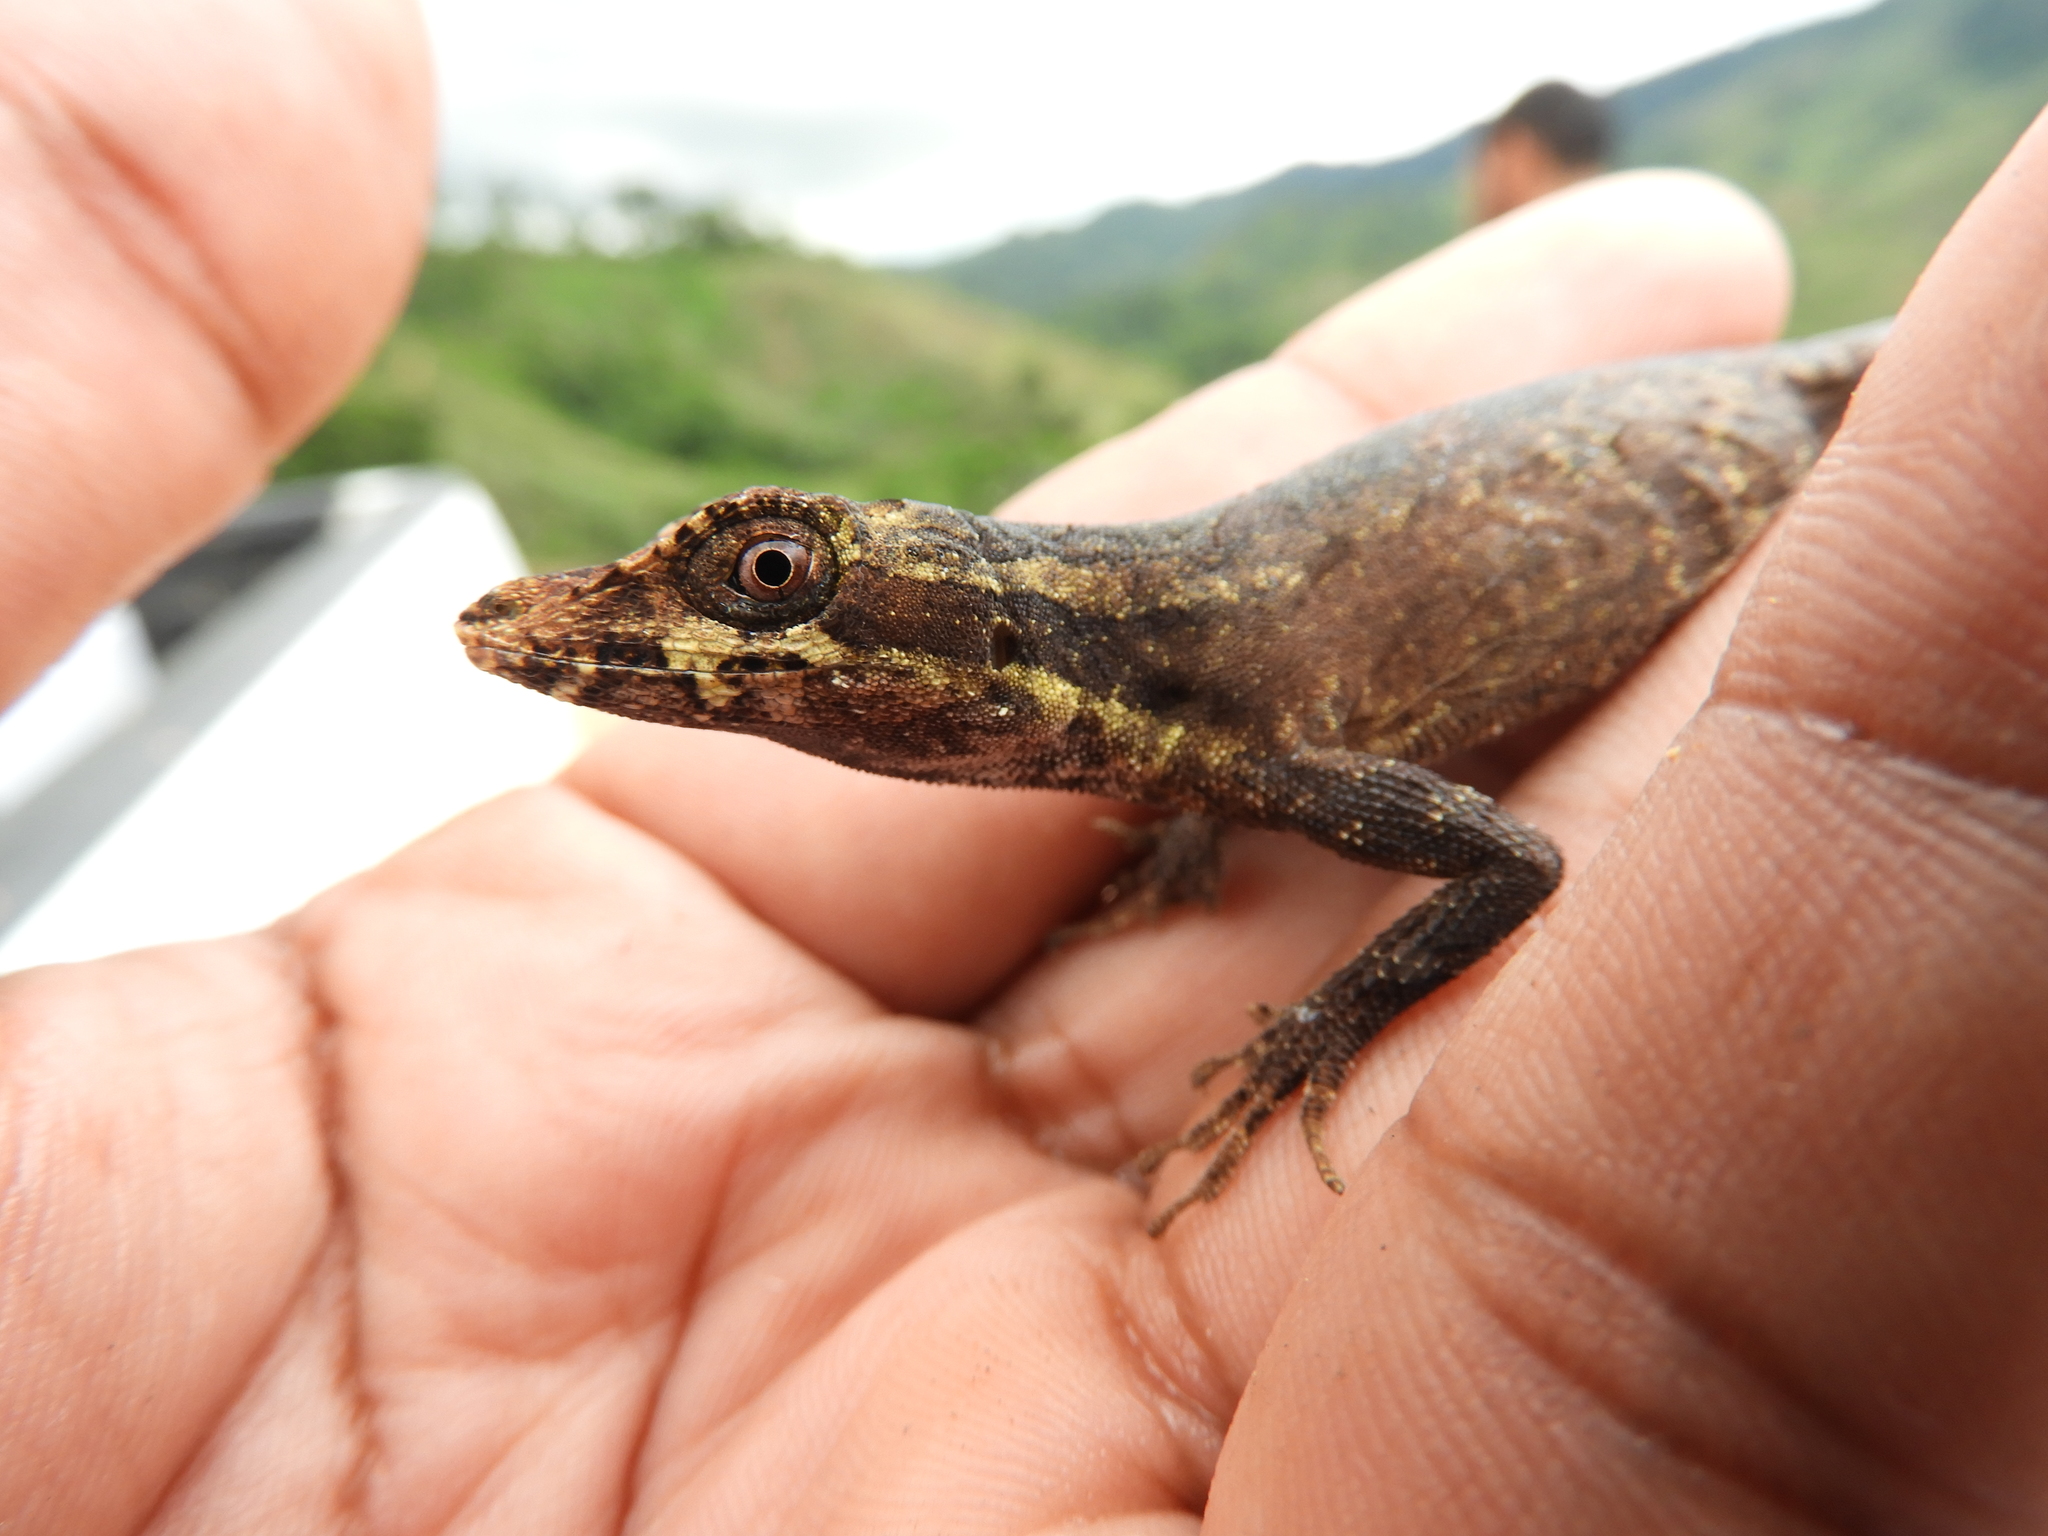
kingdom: Animalia
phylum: Chordata
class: Squamata
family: Dactyloidae
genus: Anolis
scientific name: Anolis vittigerus
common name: Garland anole
